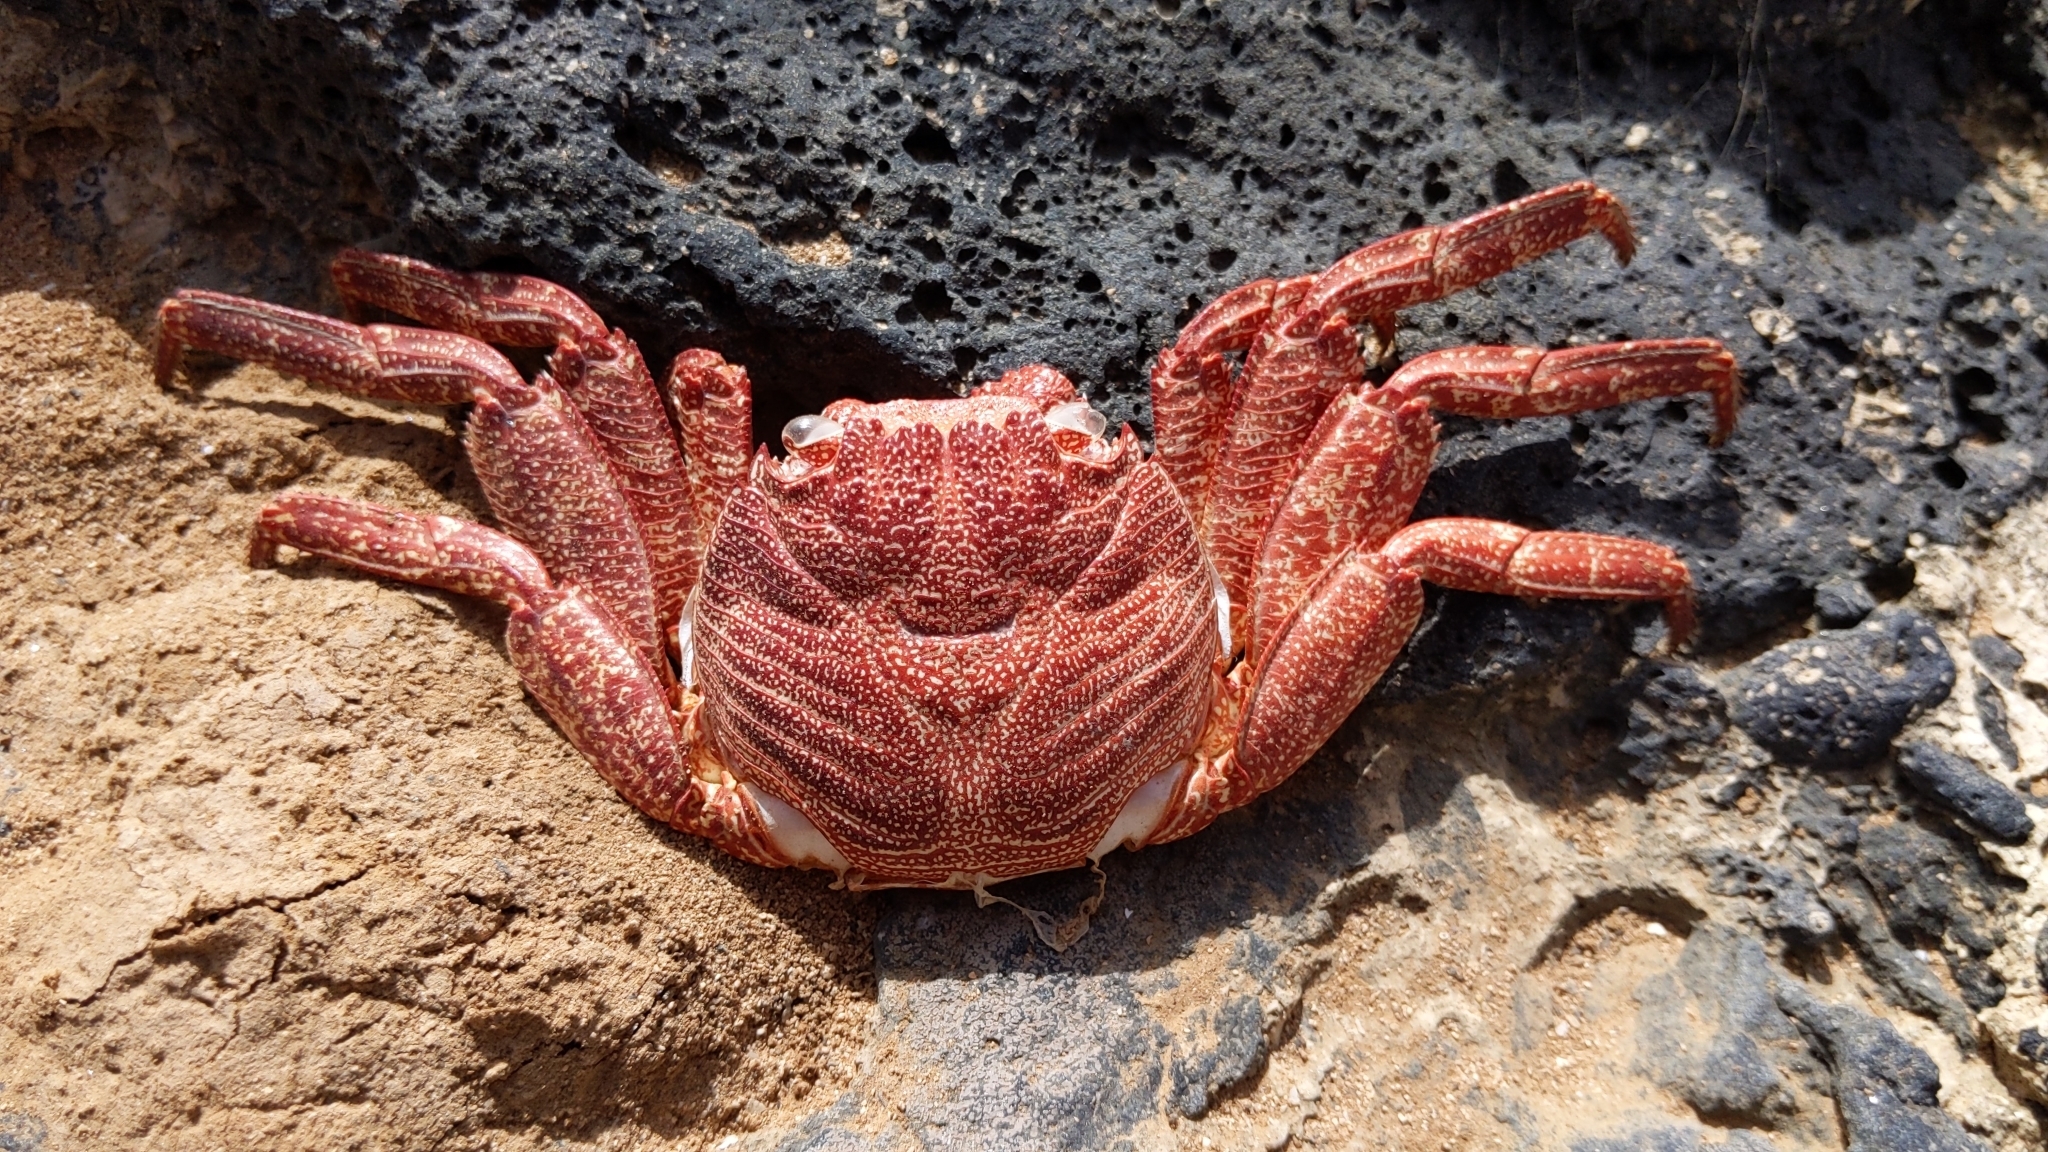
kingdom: Animalia
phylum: Arthropoda
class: Malacostraca
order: Decapoda
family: Grapsidae
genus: Grapsus
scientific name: Grapsus adscensionis
